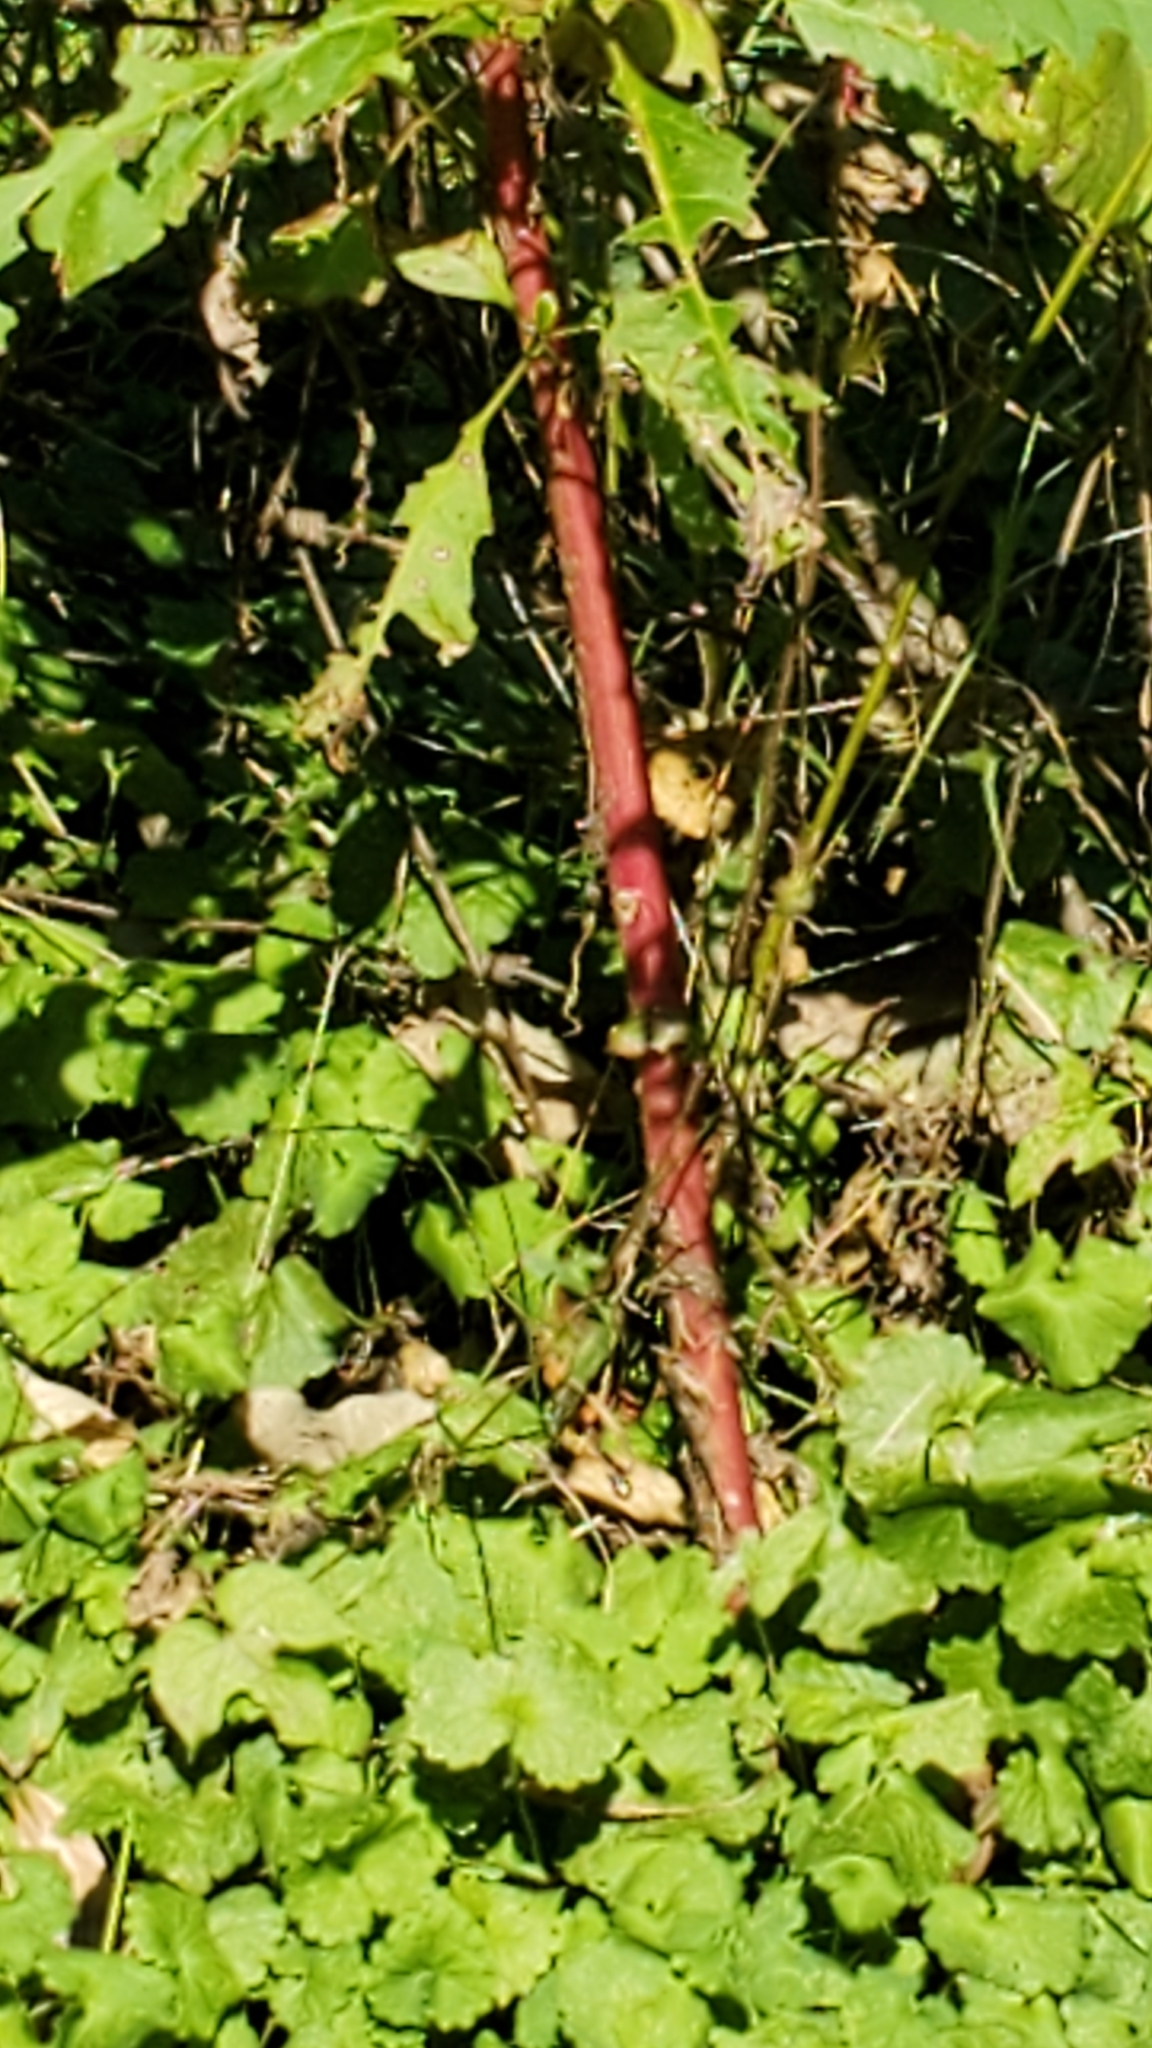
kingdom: Plantae
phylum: Tracheophyta
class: Magnoliopsida
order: Caryophyllales
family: Phytolaccaceae
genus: Phytolacca
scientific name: Phytolacca americana
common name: American pokeweed
